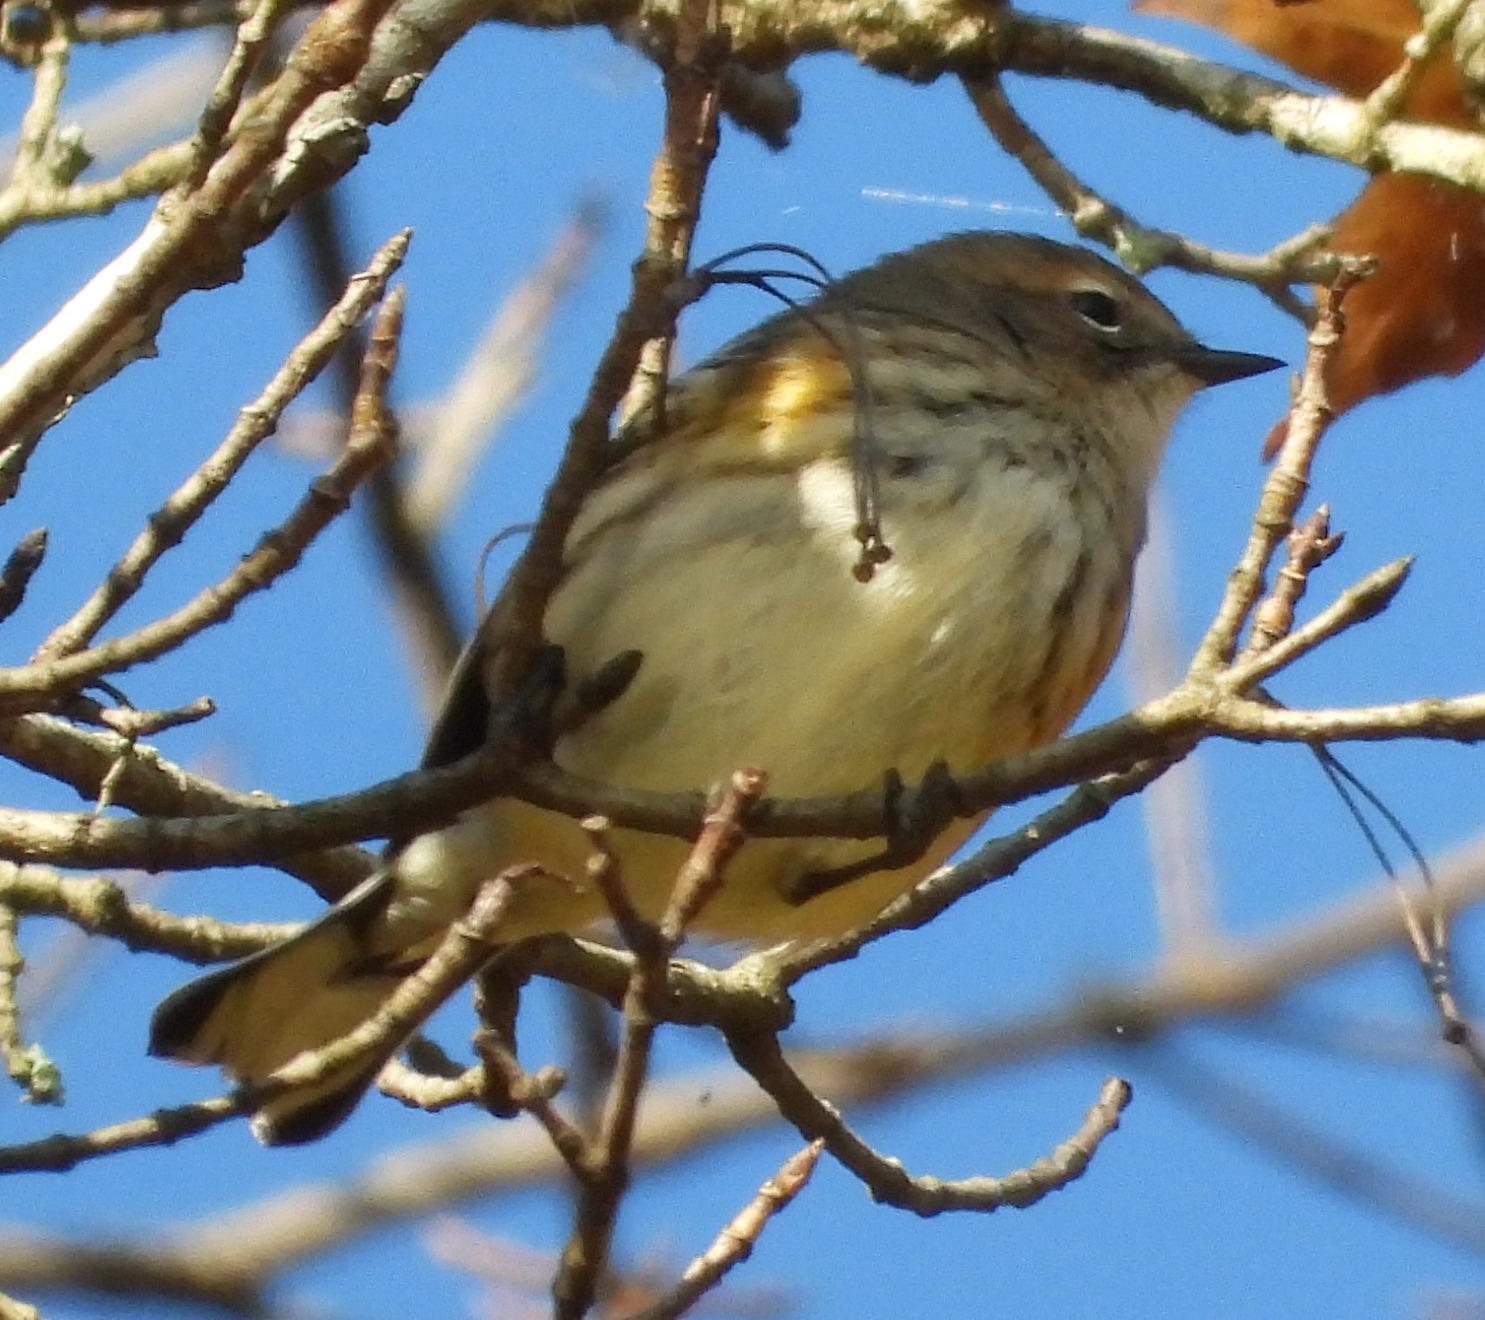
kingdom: Animalia
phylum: Chordata
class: Aves
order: Passeriformes
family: Parulidae
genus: Setophaga
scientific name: Setophaga coronata
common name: Myrtle warbler
